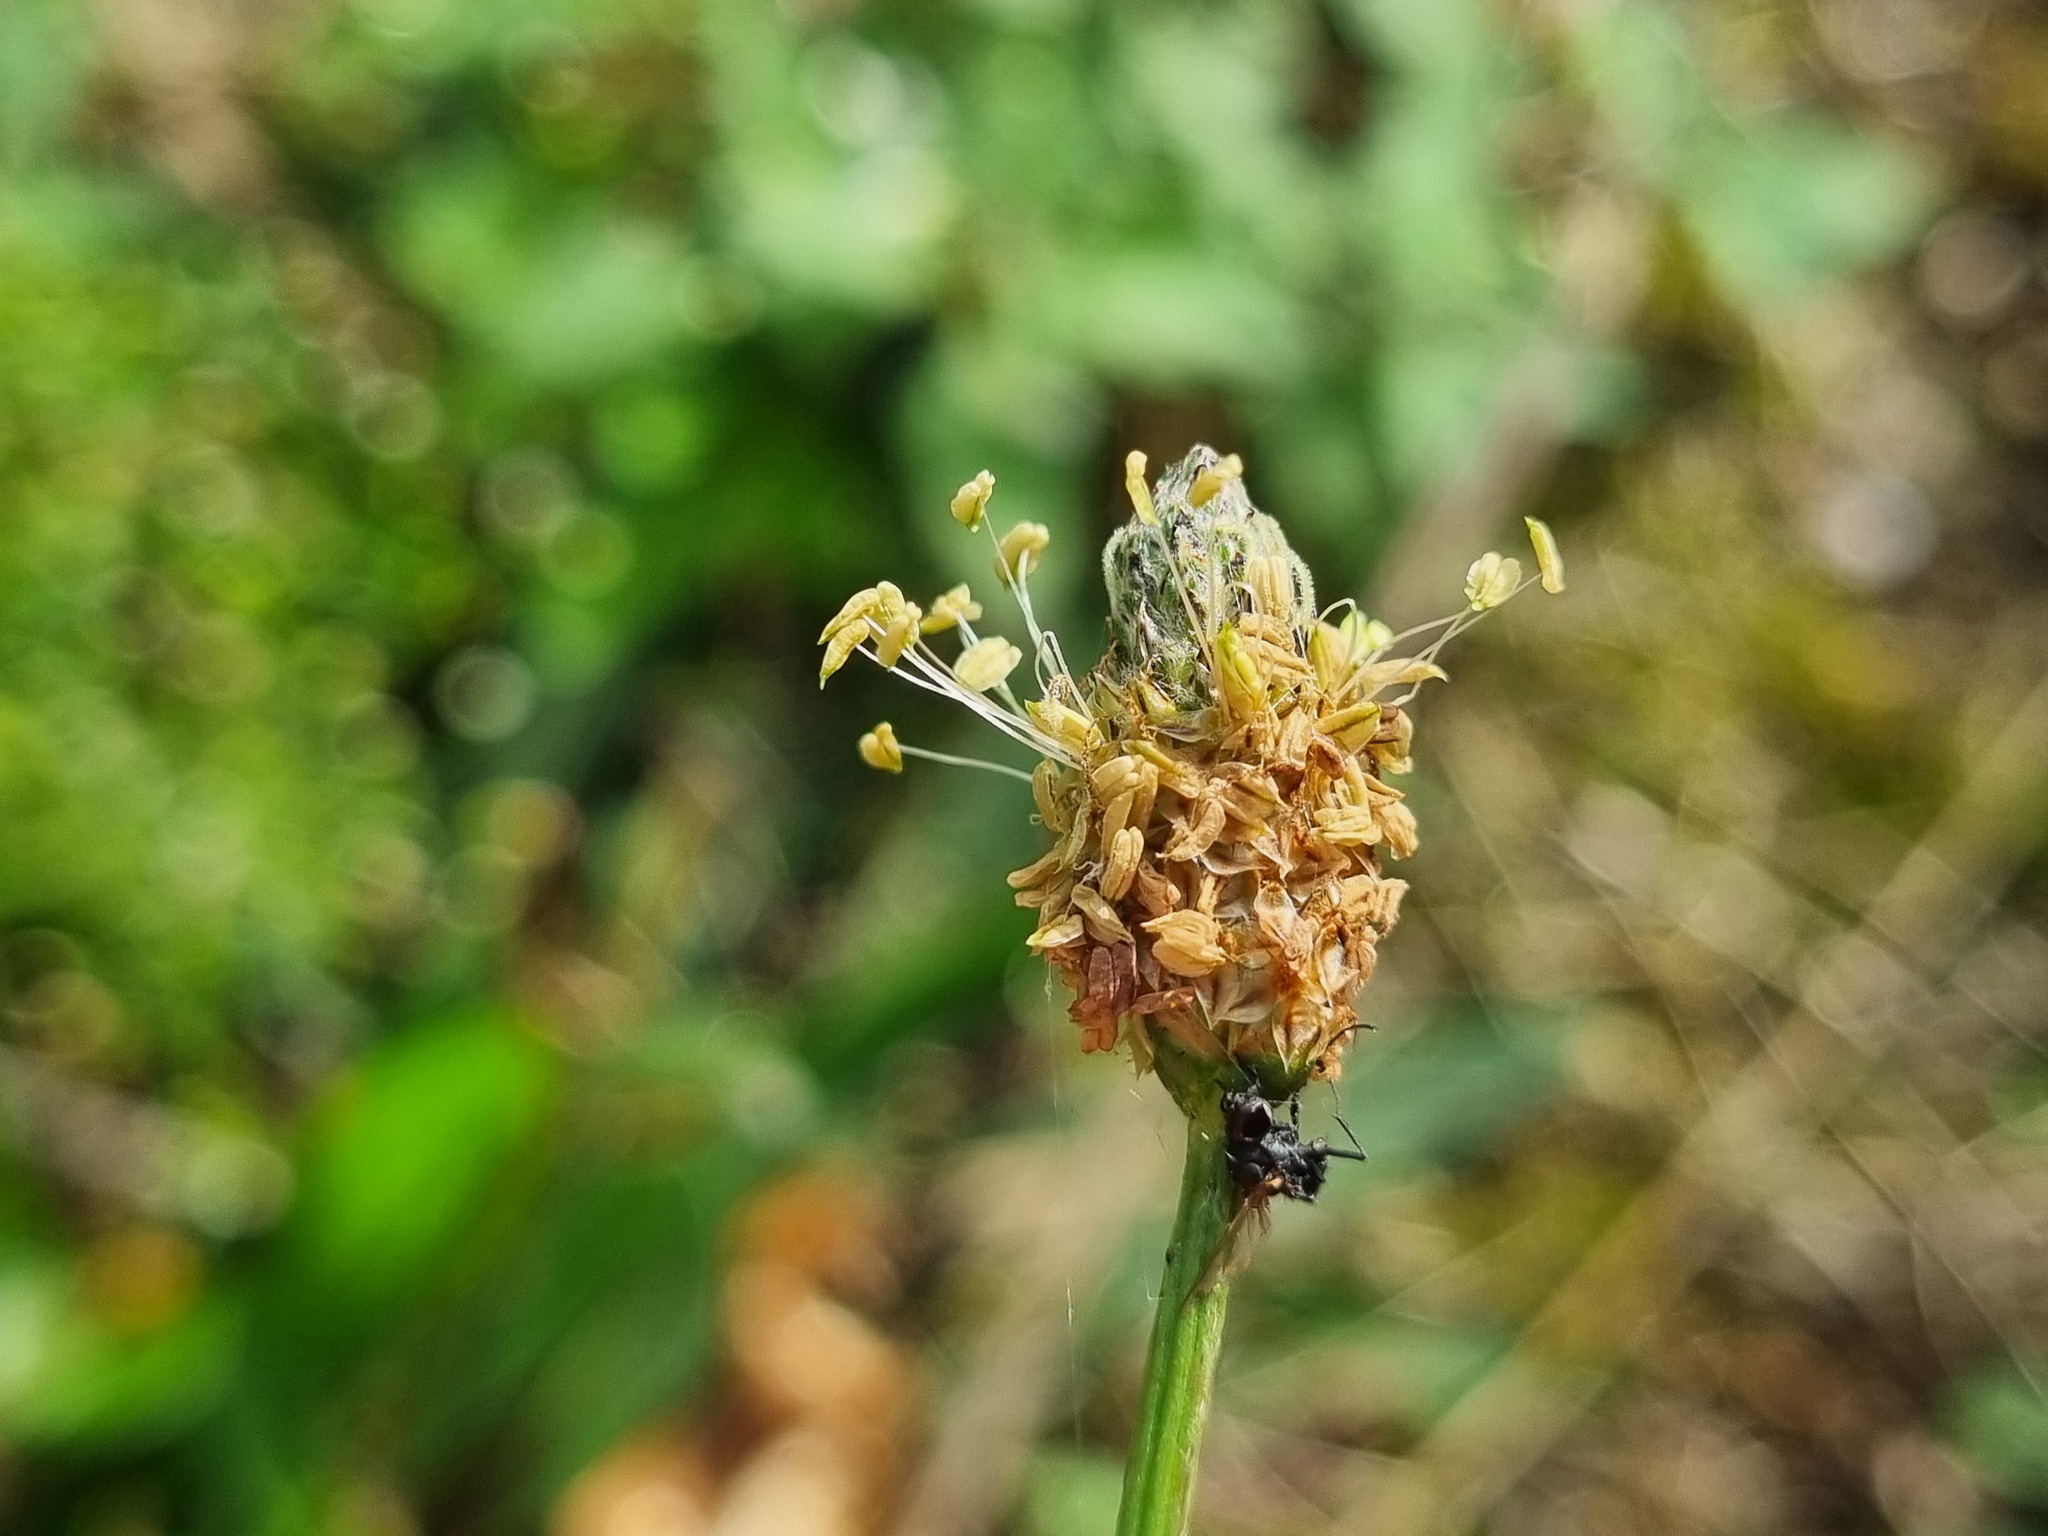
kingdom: Plantae
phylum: Tracheophyta
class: Magnoliopsida
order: Lamiales
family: Plantaginaceae
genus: Plantago
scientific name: Plantago lanceolata
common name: Ribwort plantain
